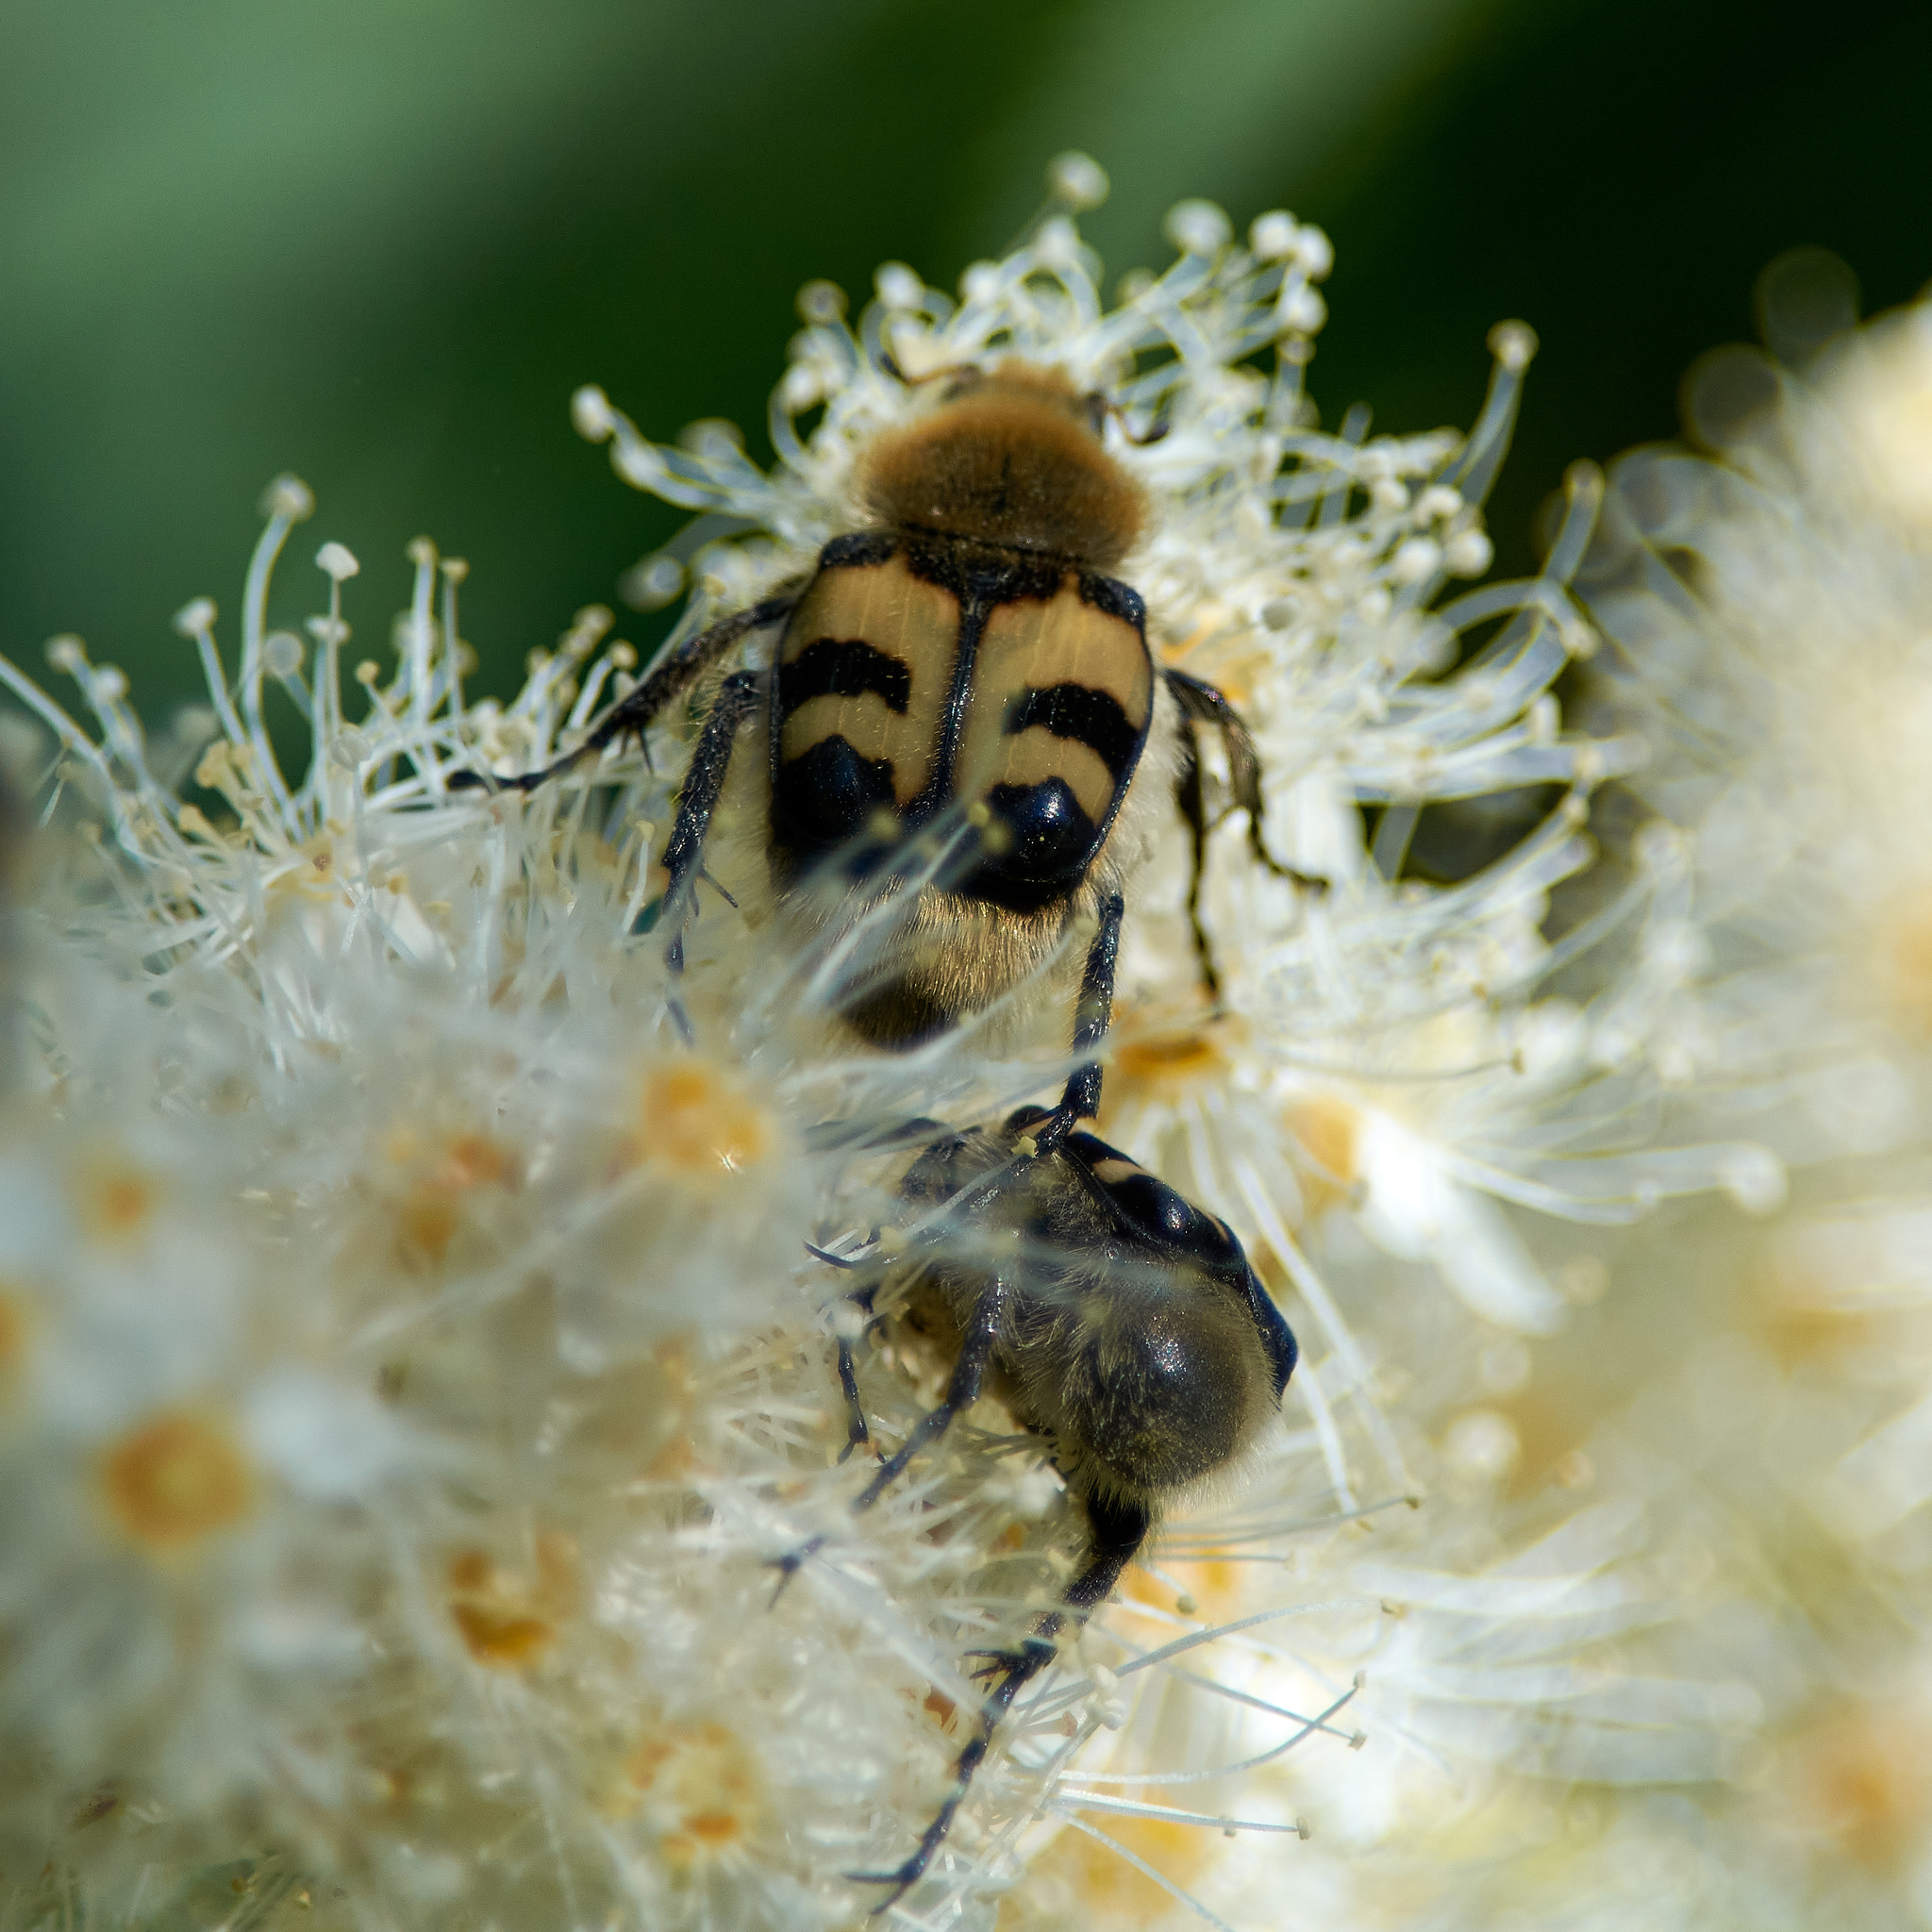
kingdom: Animalia
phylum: Arthropoda
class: Insecta
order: Coleoptera
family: Scarabaeidae
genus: Trichius
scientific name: Trichius fasciatus
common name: Bee beetle
